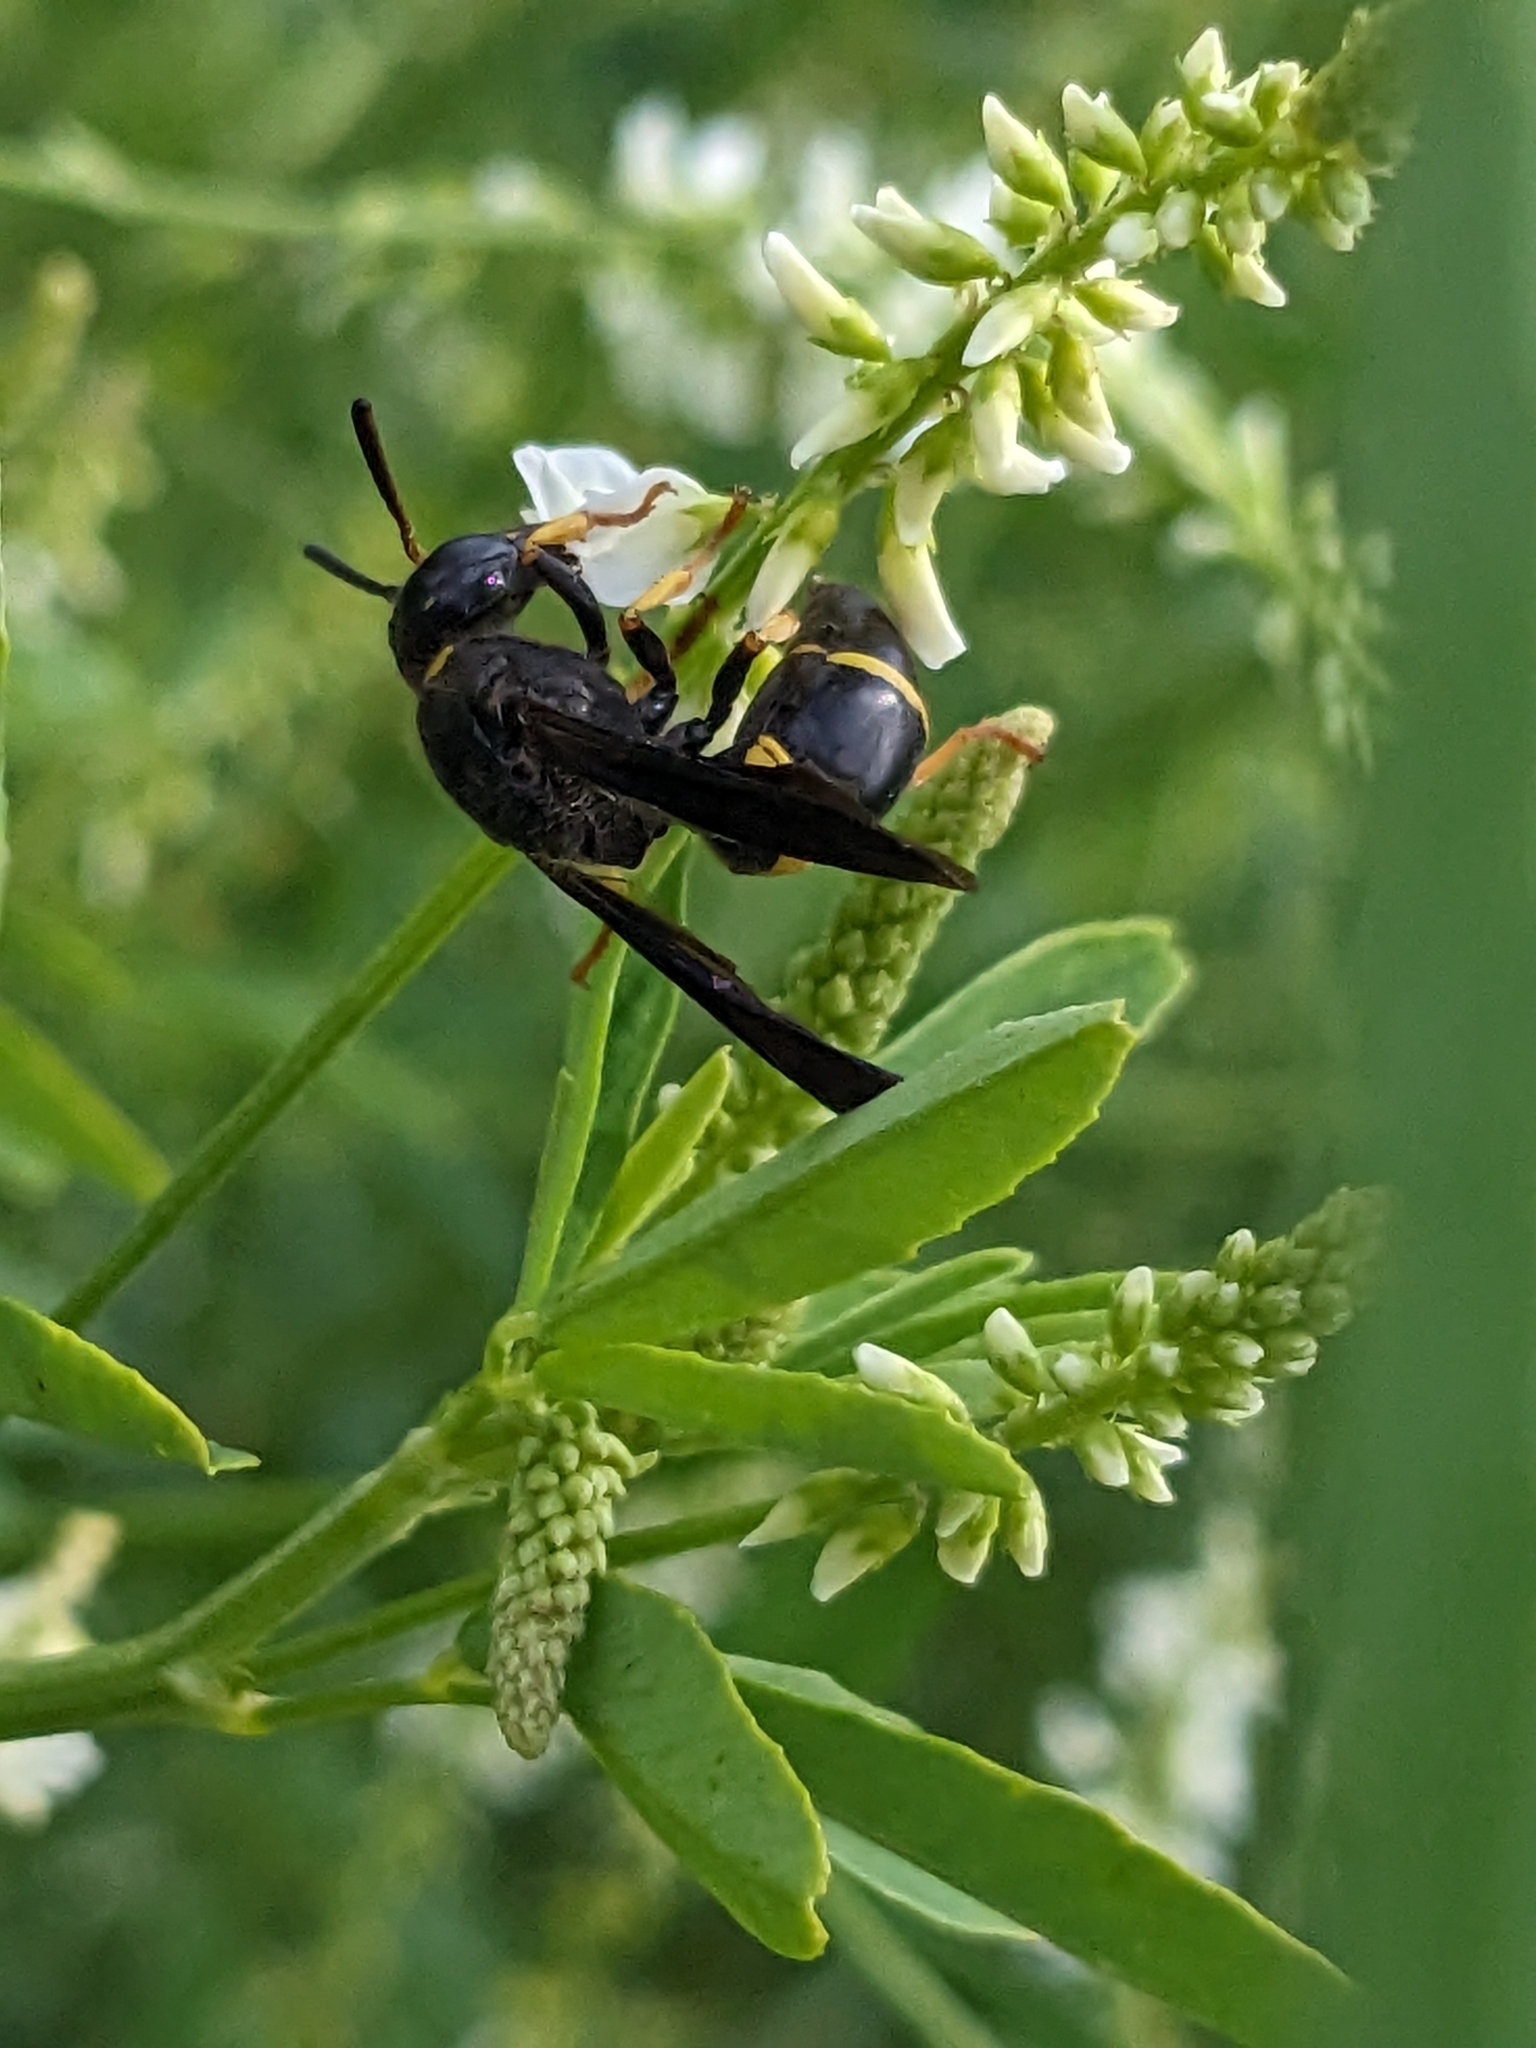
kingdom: Animalia
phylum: Arthropoda
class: Insecta
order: Hymenoptera
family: Vespidae
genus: Ancistrocerus
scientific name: Ancistrocerus spinolae
